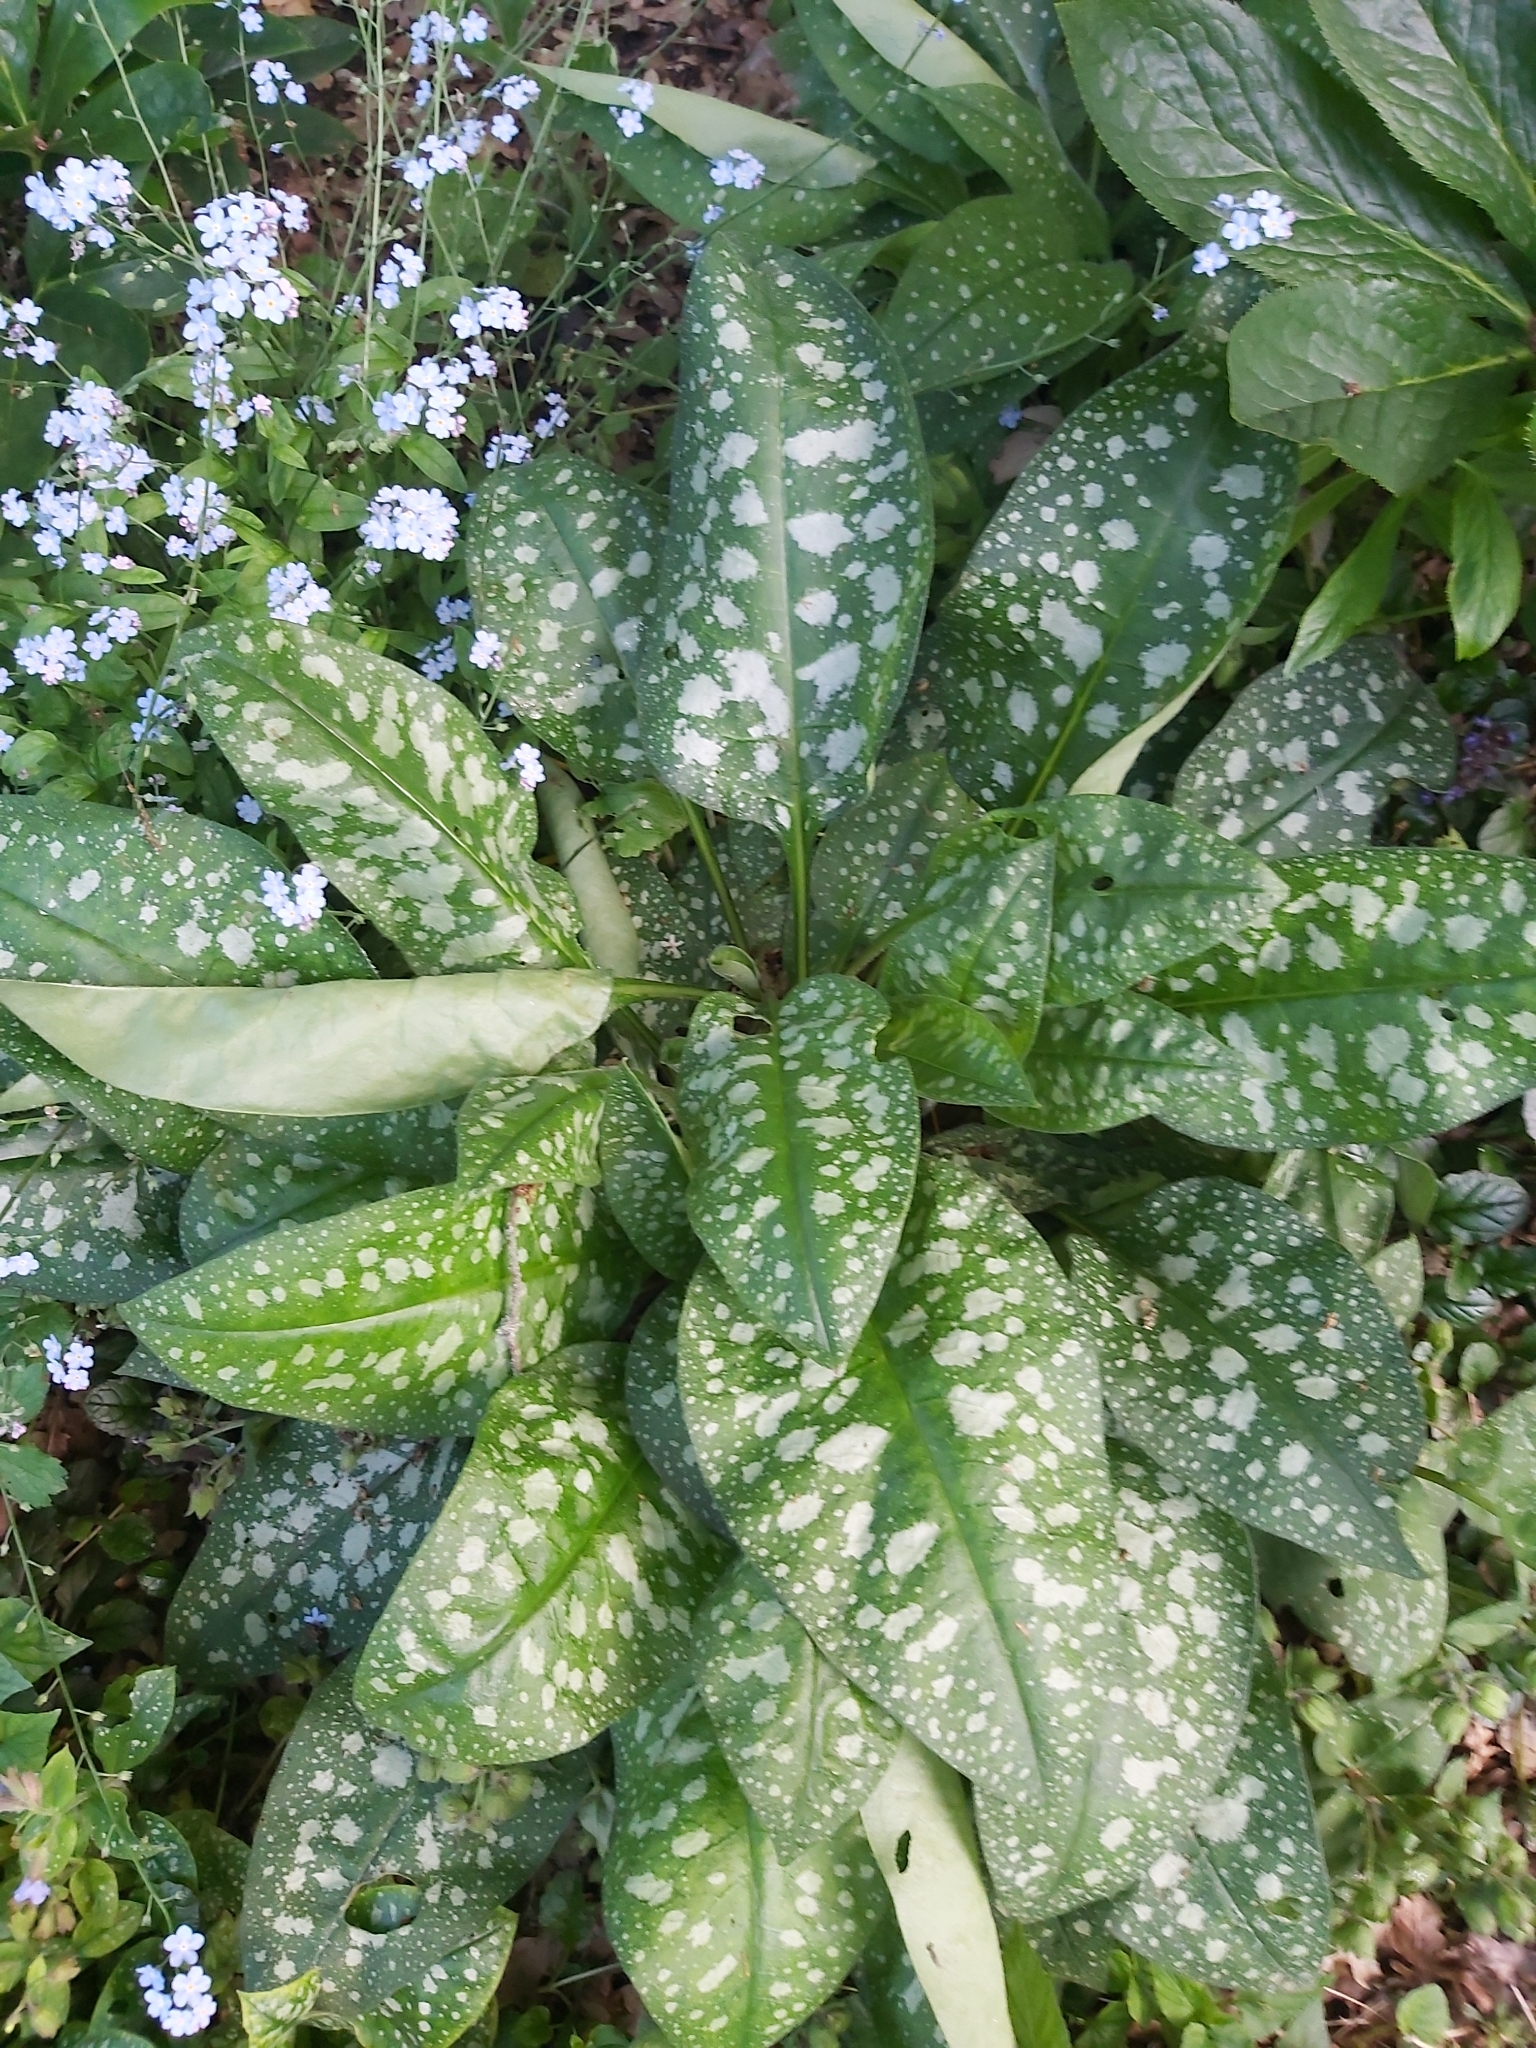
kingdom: Plantae
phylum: Tracheophyta
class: Magnoliopsida
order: Boraginales
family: Boraginaceae
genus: Pulmonaria
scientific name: Pulmonaria officinalis
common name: Lungwort
